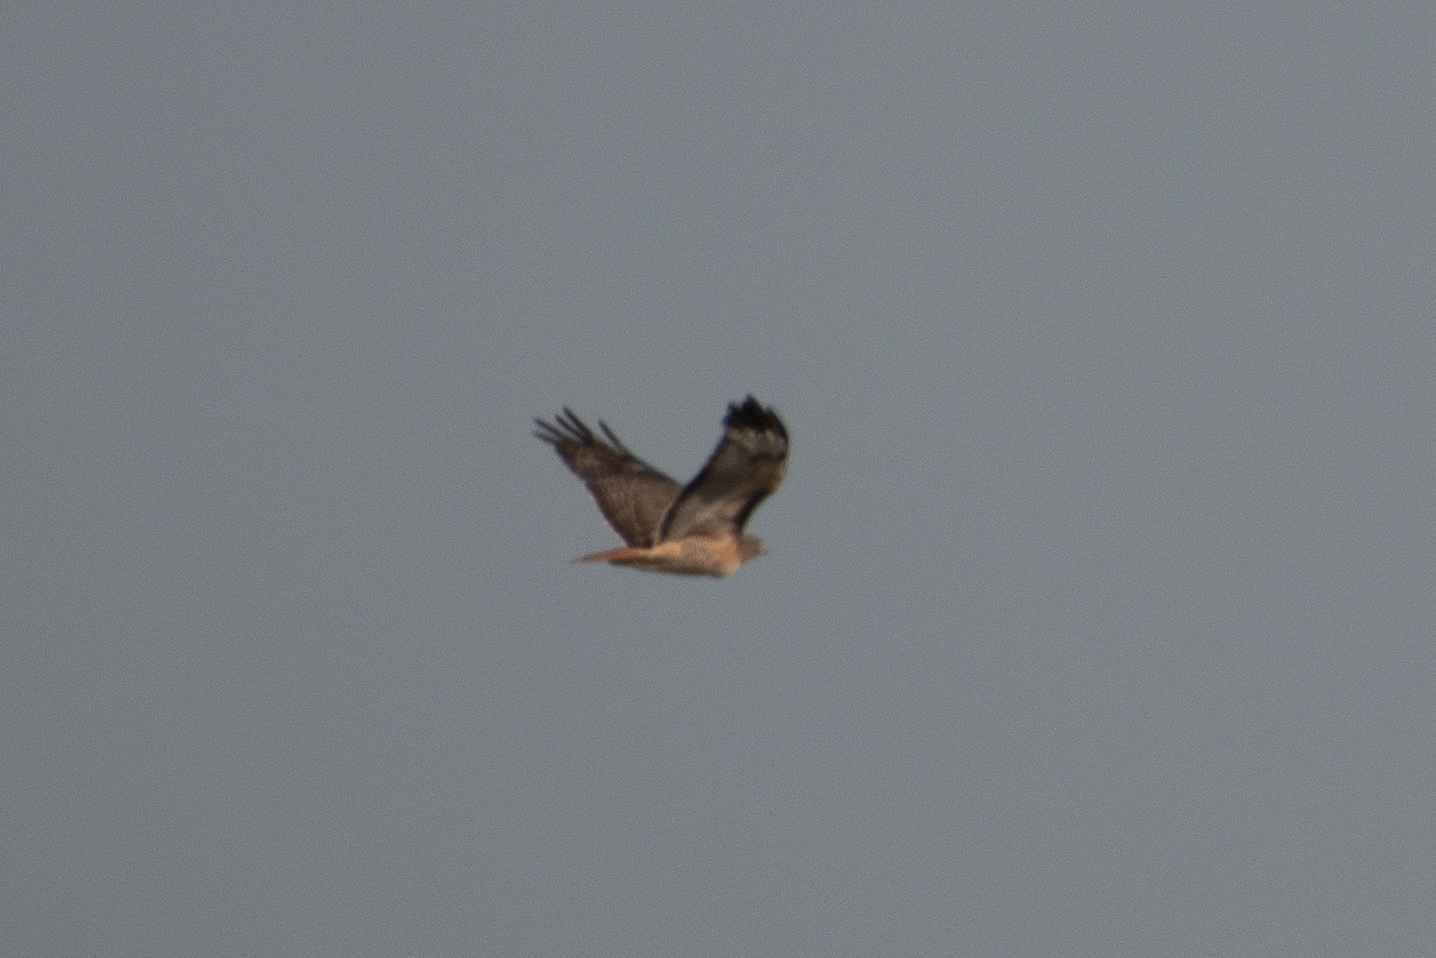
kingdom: Animalia
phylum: Chordata
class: Aves
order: Accipitriformes
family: Accipitridae
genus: Buteo
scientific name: Buteo jamaicensis
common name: Red-tailed hawk
